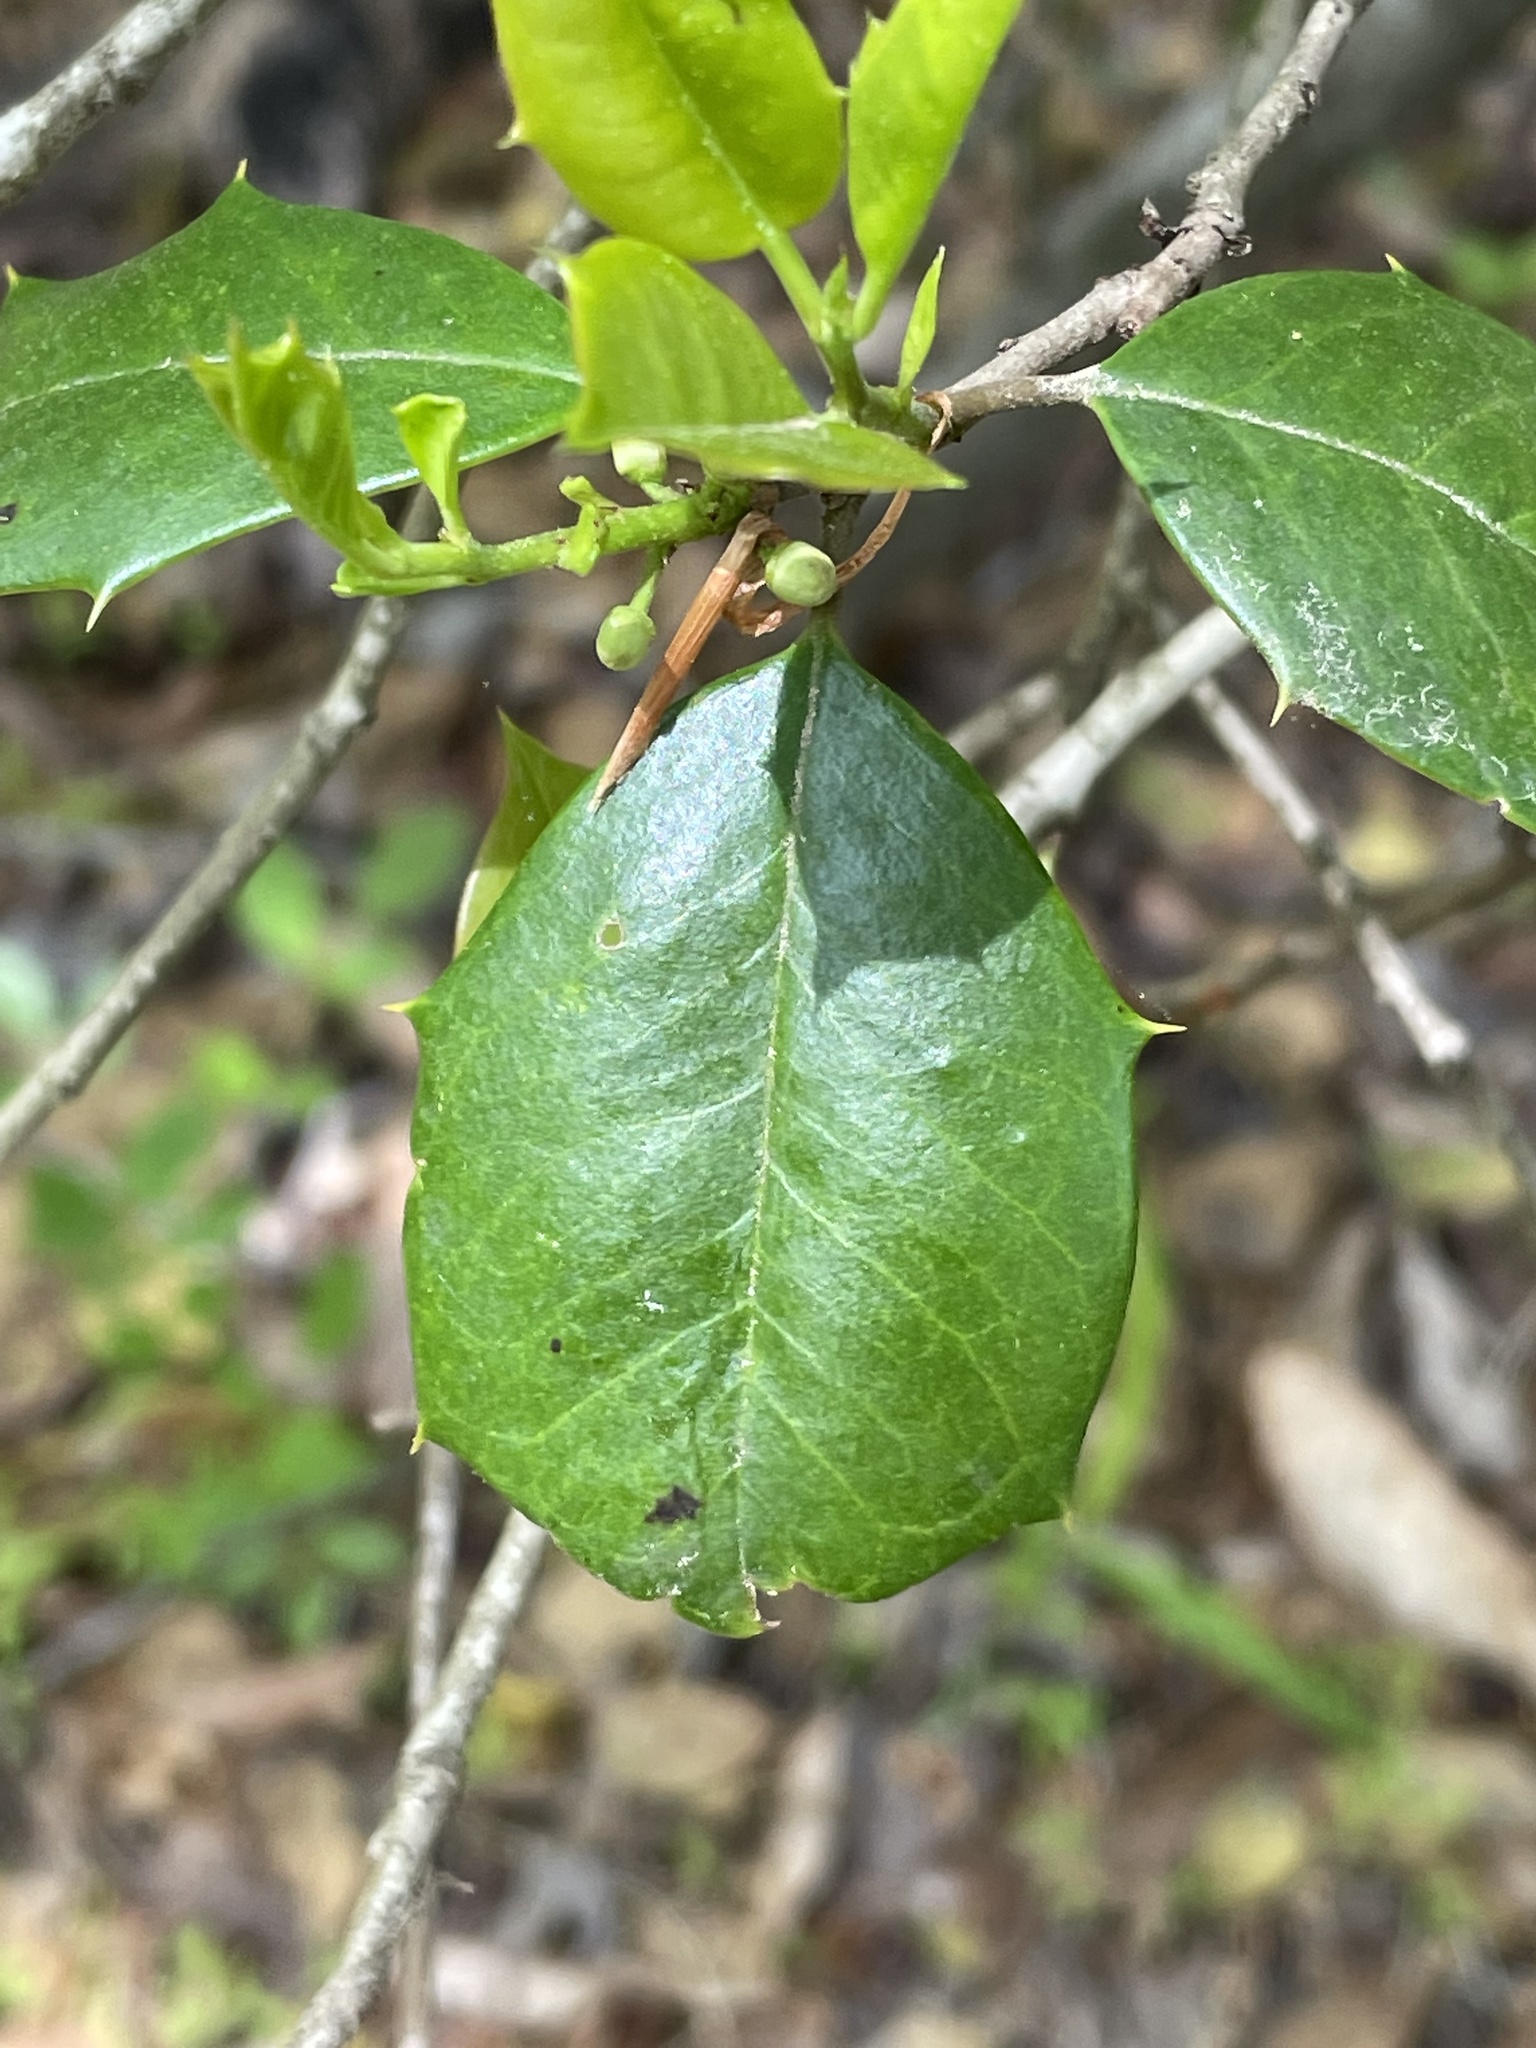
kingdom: Plantae
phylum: Tracheophyta
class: Magnoliopsida
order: Aquifoliales
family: Aquifoliaceae
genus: Ilex
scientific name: Ilex opaca
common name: American holly
